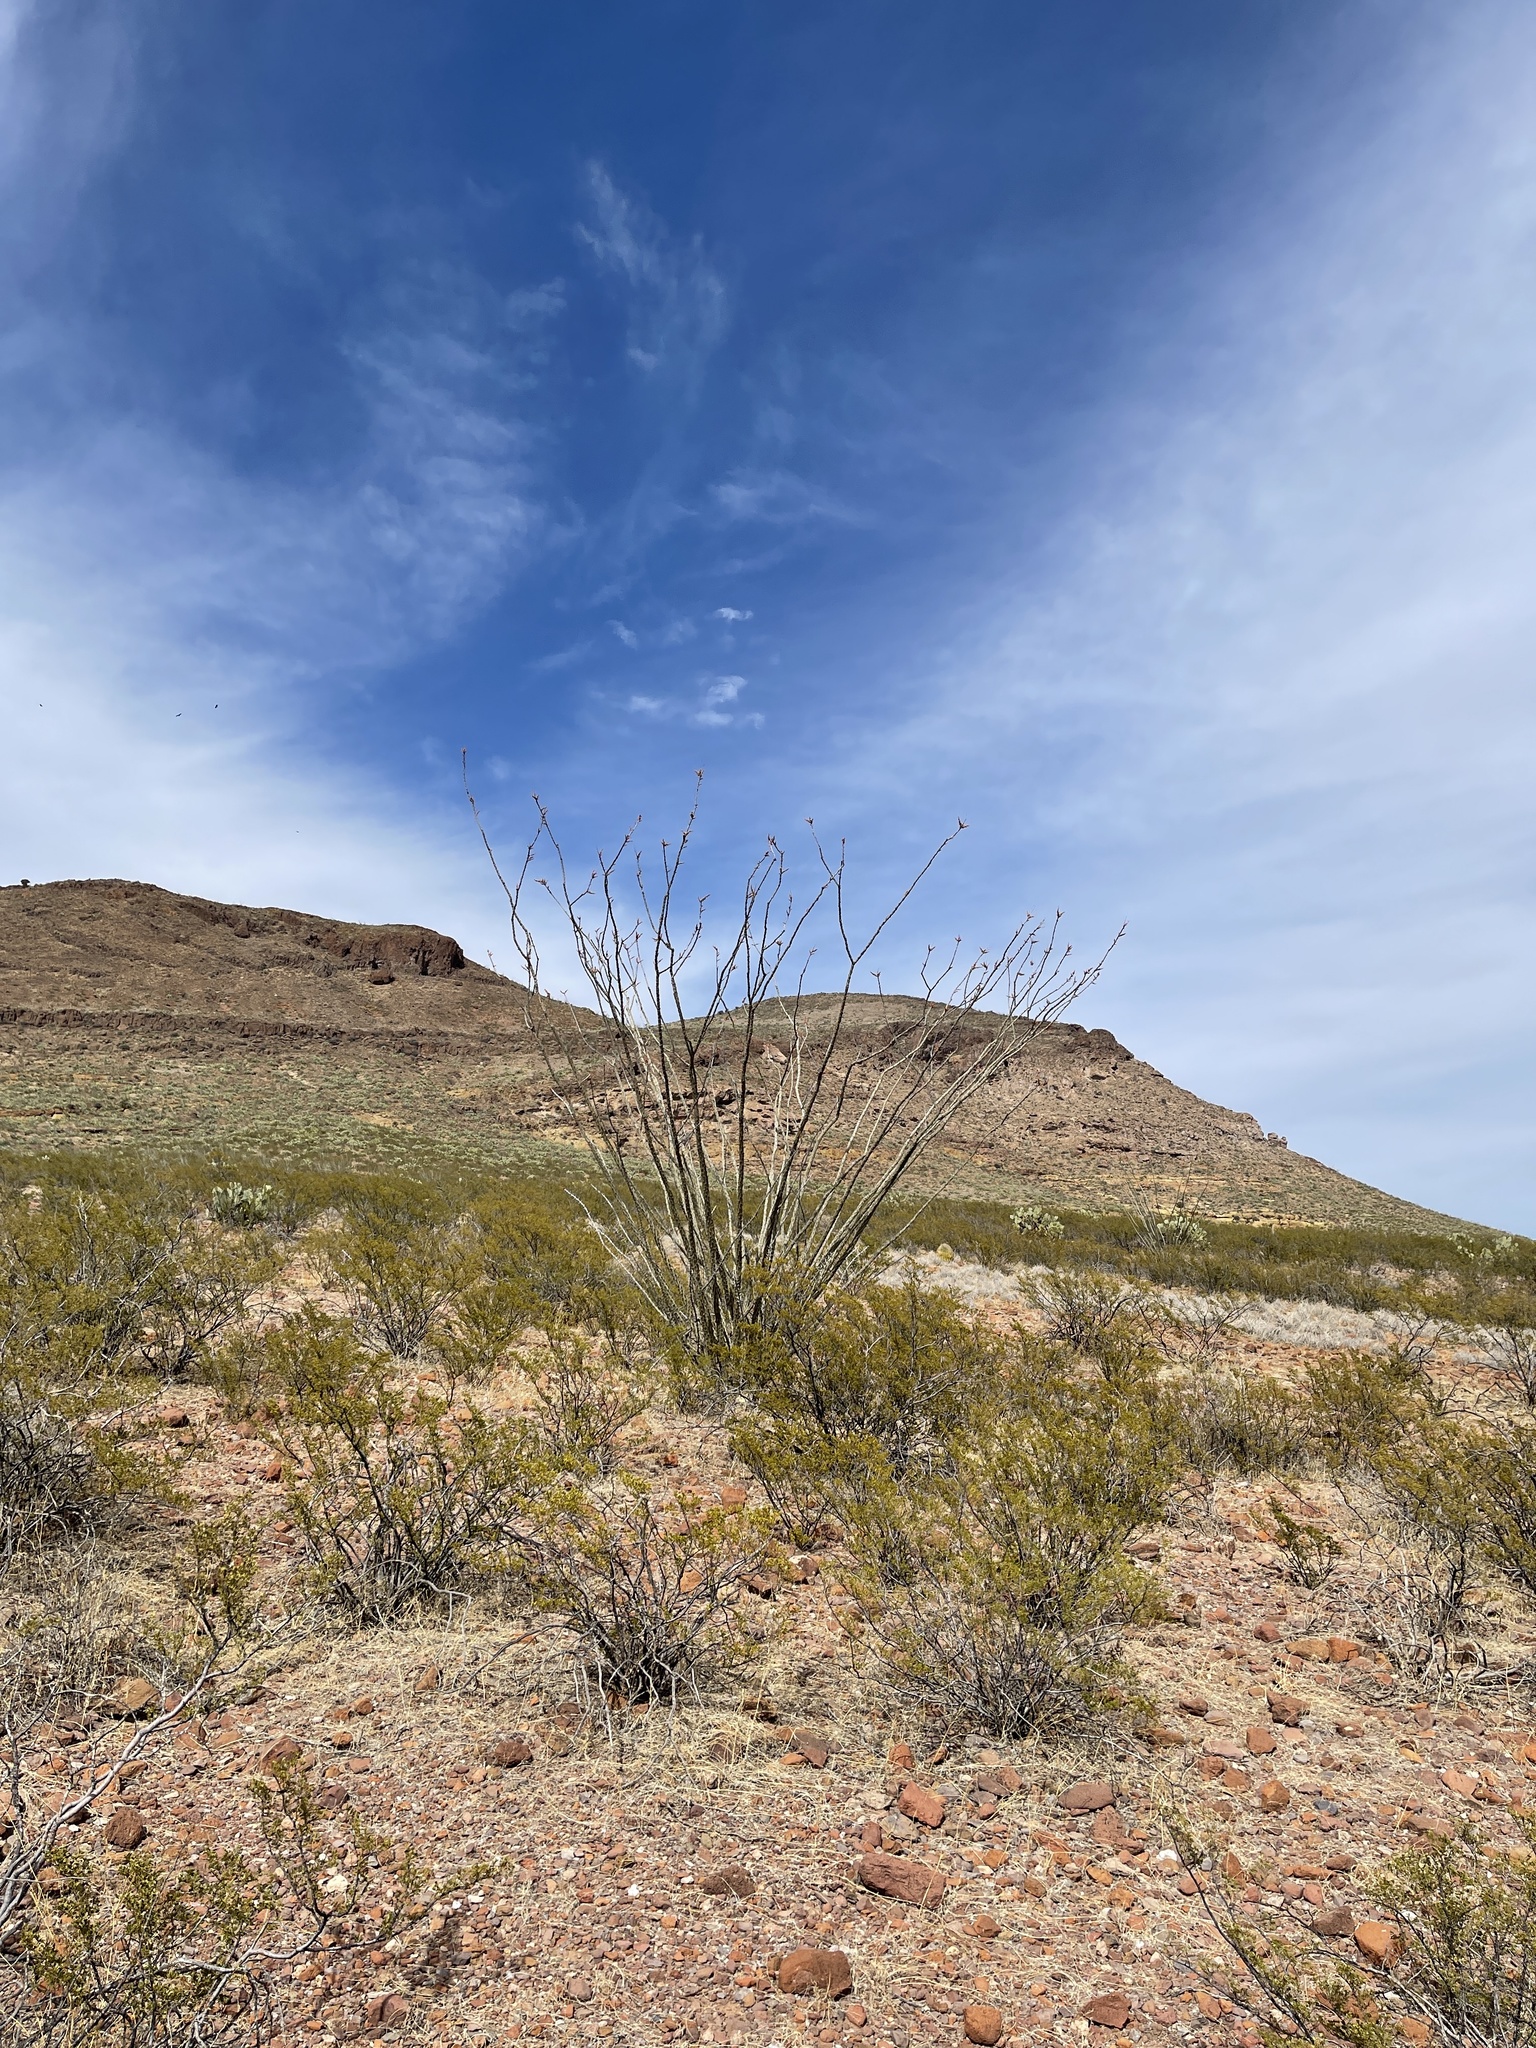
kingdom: Plantae
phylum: Tracheophyta
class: Magnoliopsida
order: Ericales
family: Fouquieriaceae
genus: Fouquieria
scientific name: Fouquieria splendens
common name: Vine-cactus
